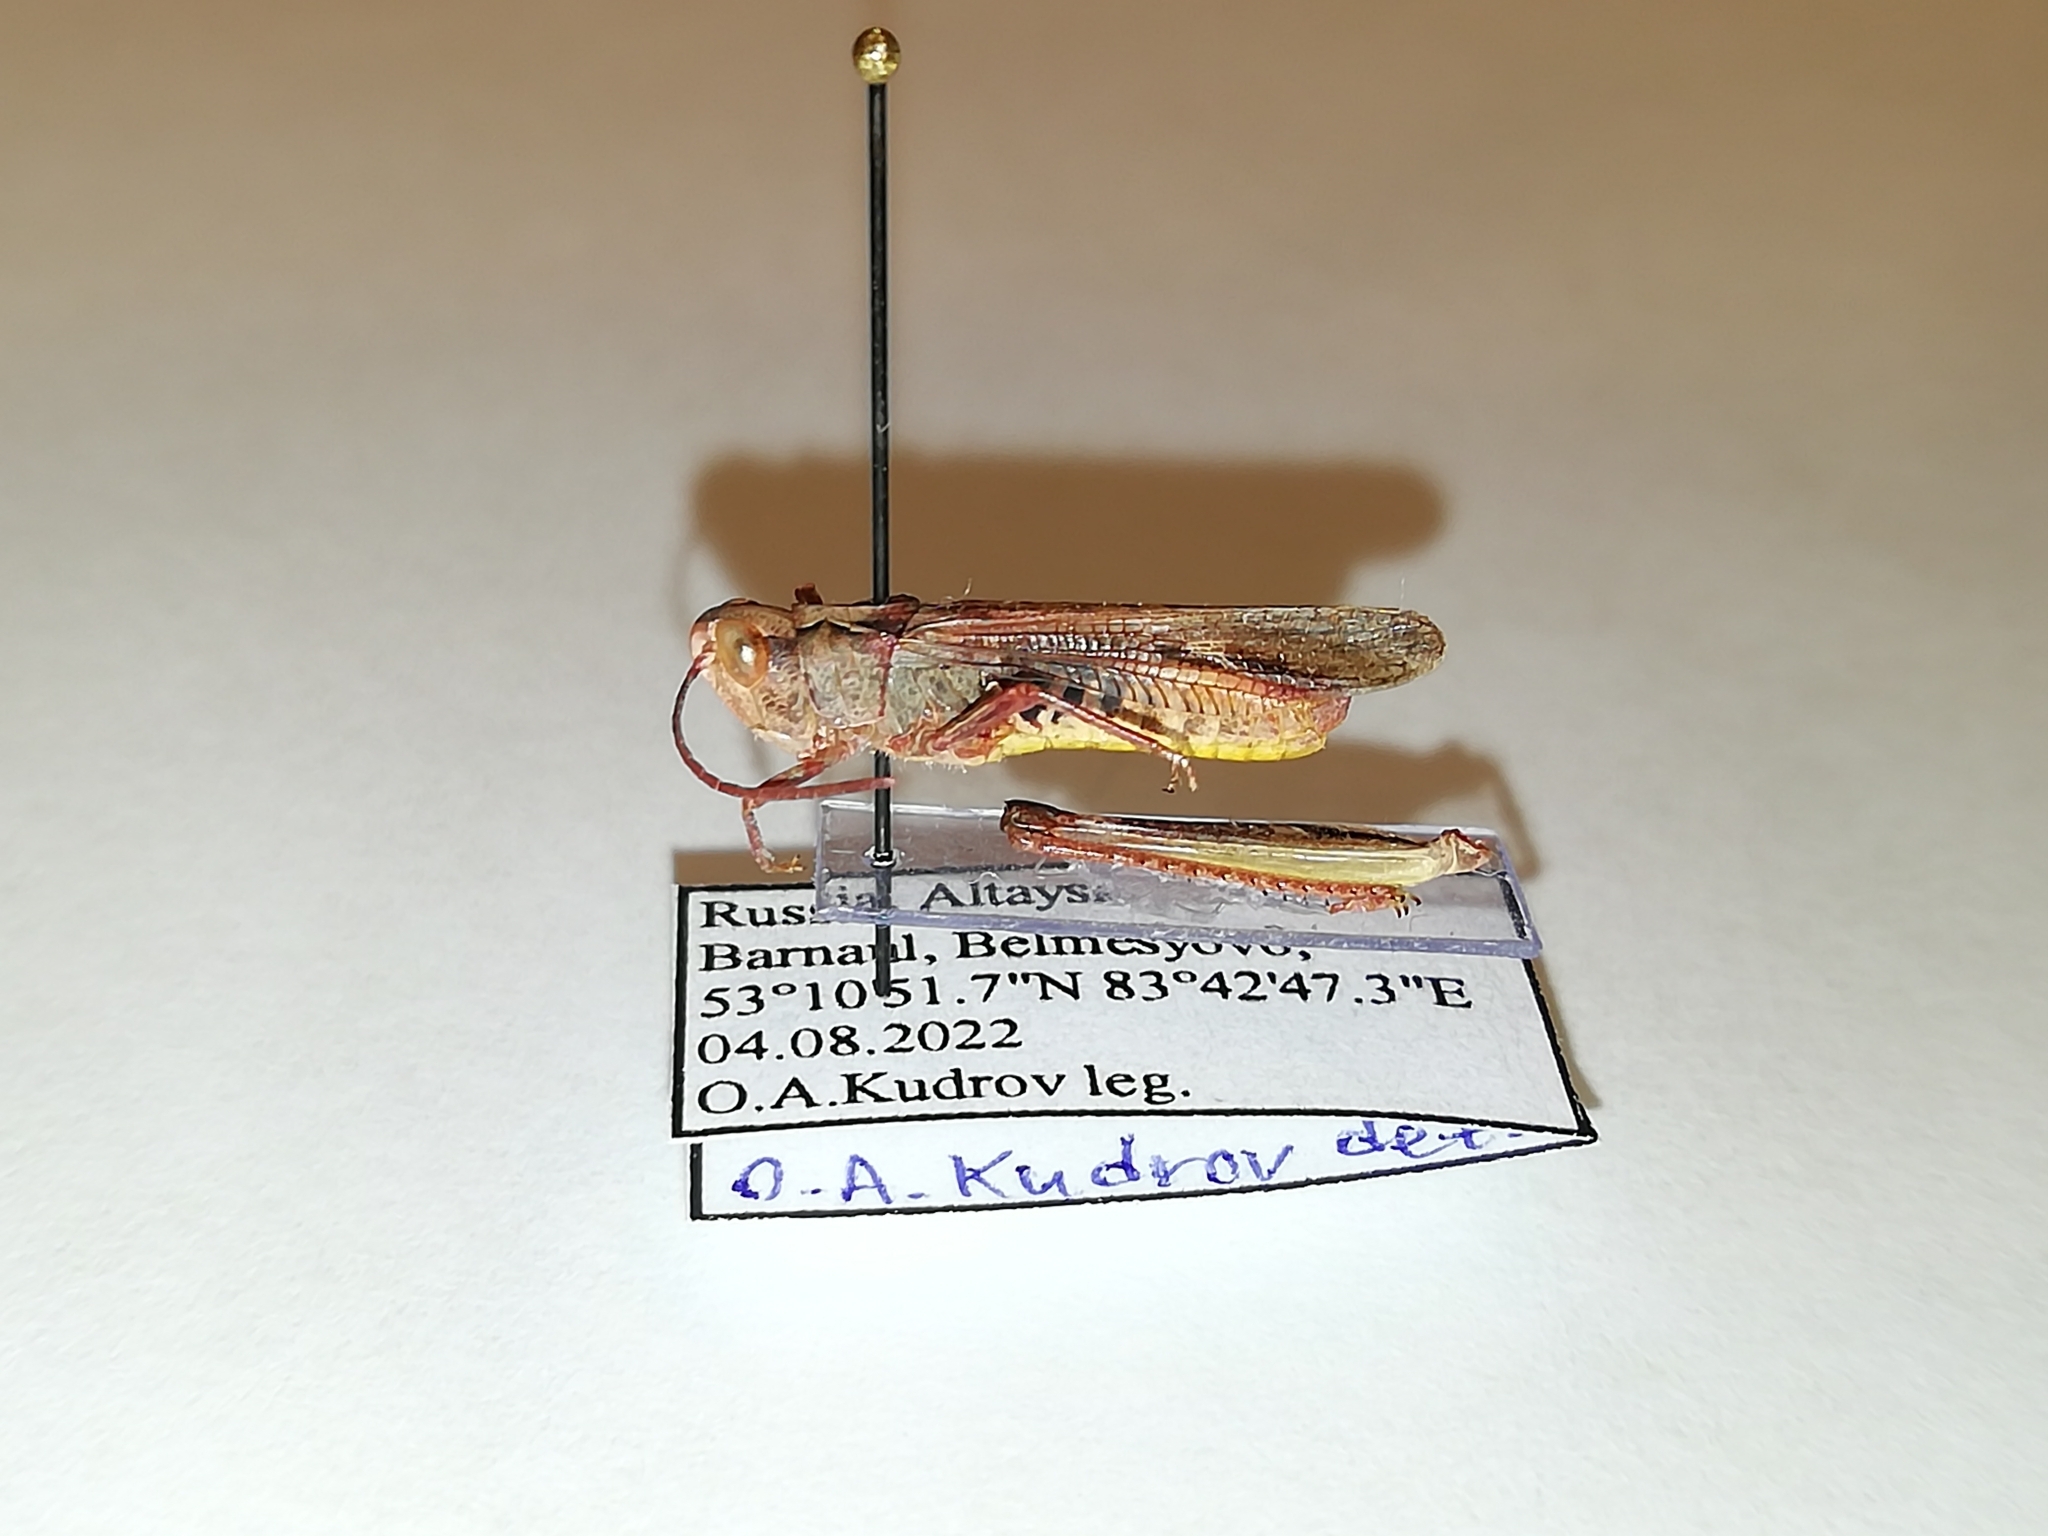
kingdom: Animalia
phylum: Arthropoda
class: Insecta
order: Orthoptera
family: Acrididae
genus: Chorthippus
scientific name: Chorthippus miramae
